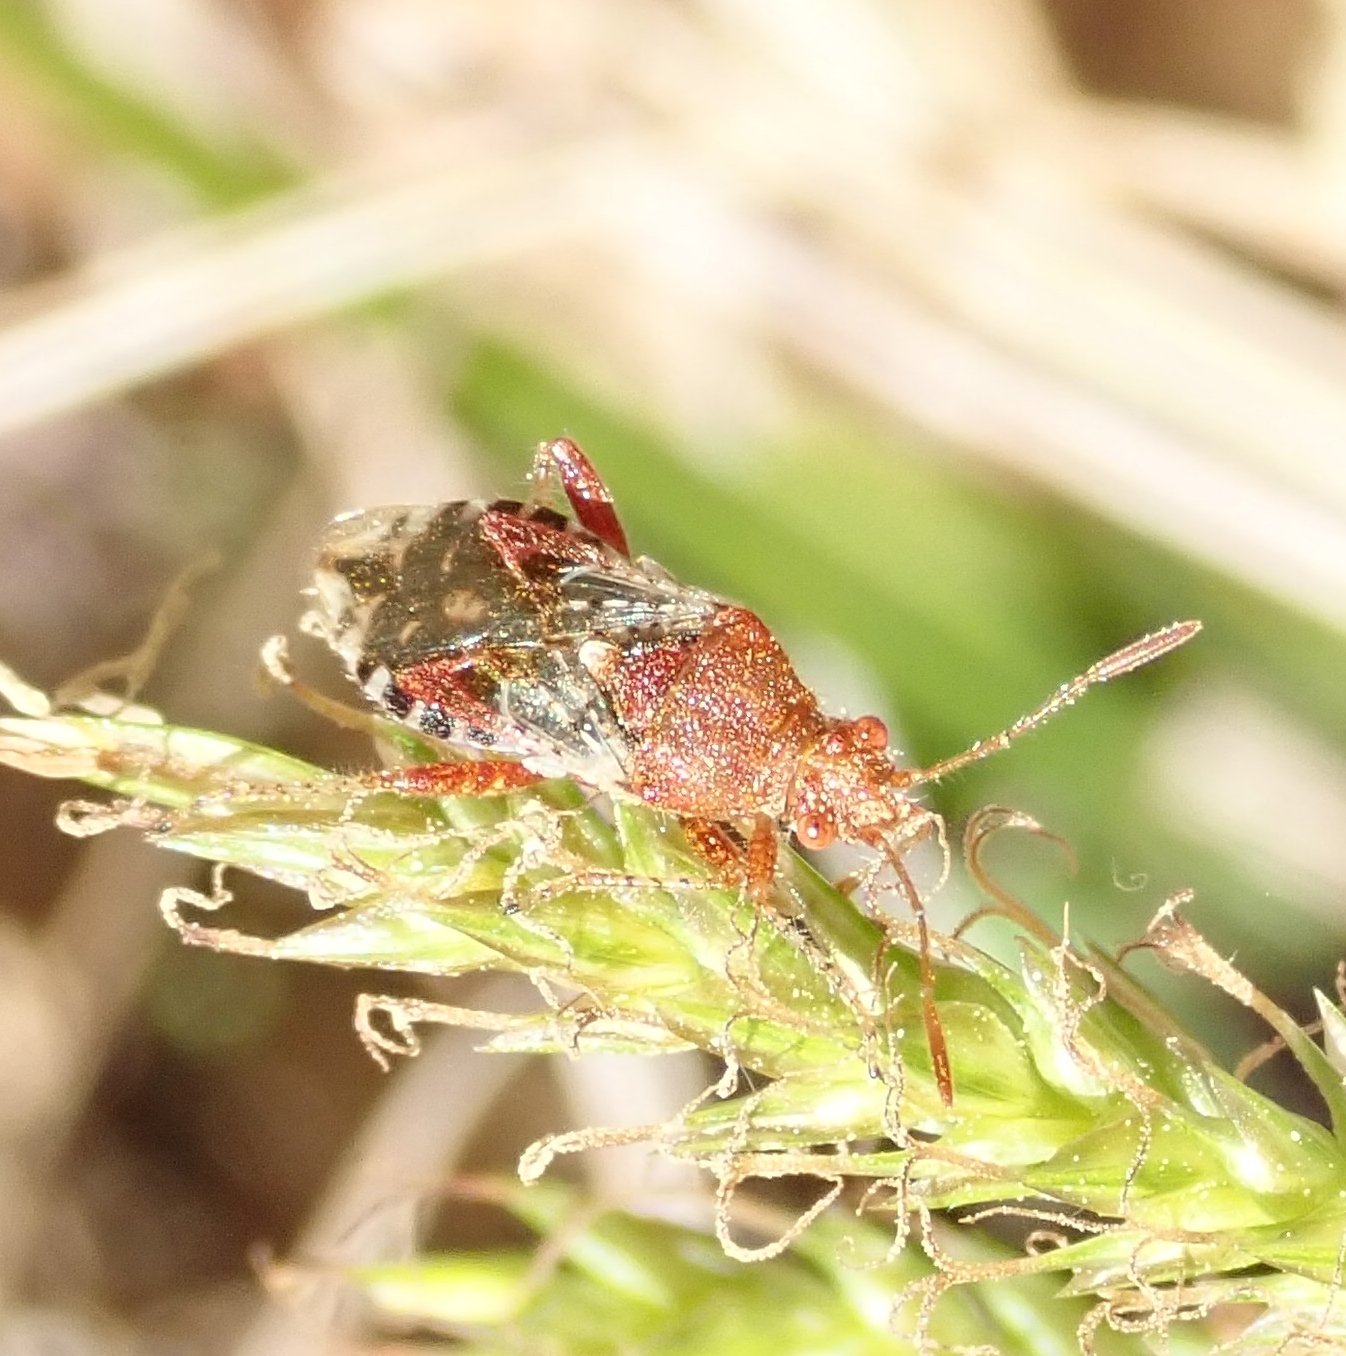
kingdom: Animalia
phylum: Arthropoda
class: Insecta
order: Hemiptera
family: Rhopalidae
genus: Rhopalus
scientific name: Rhopalus subrufus
